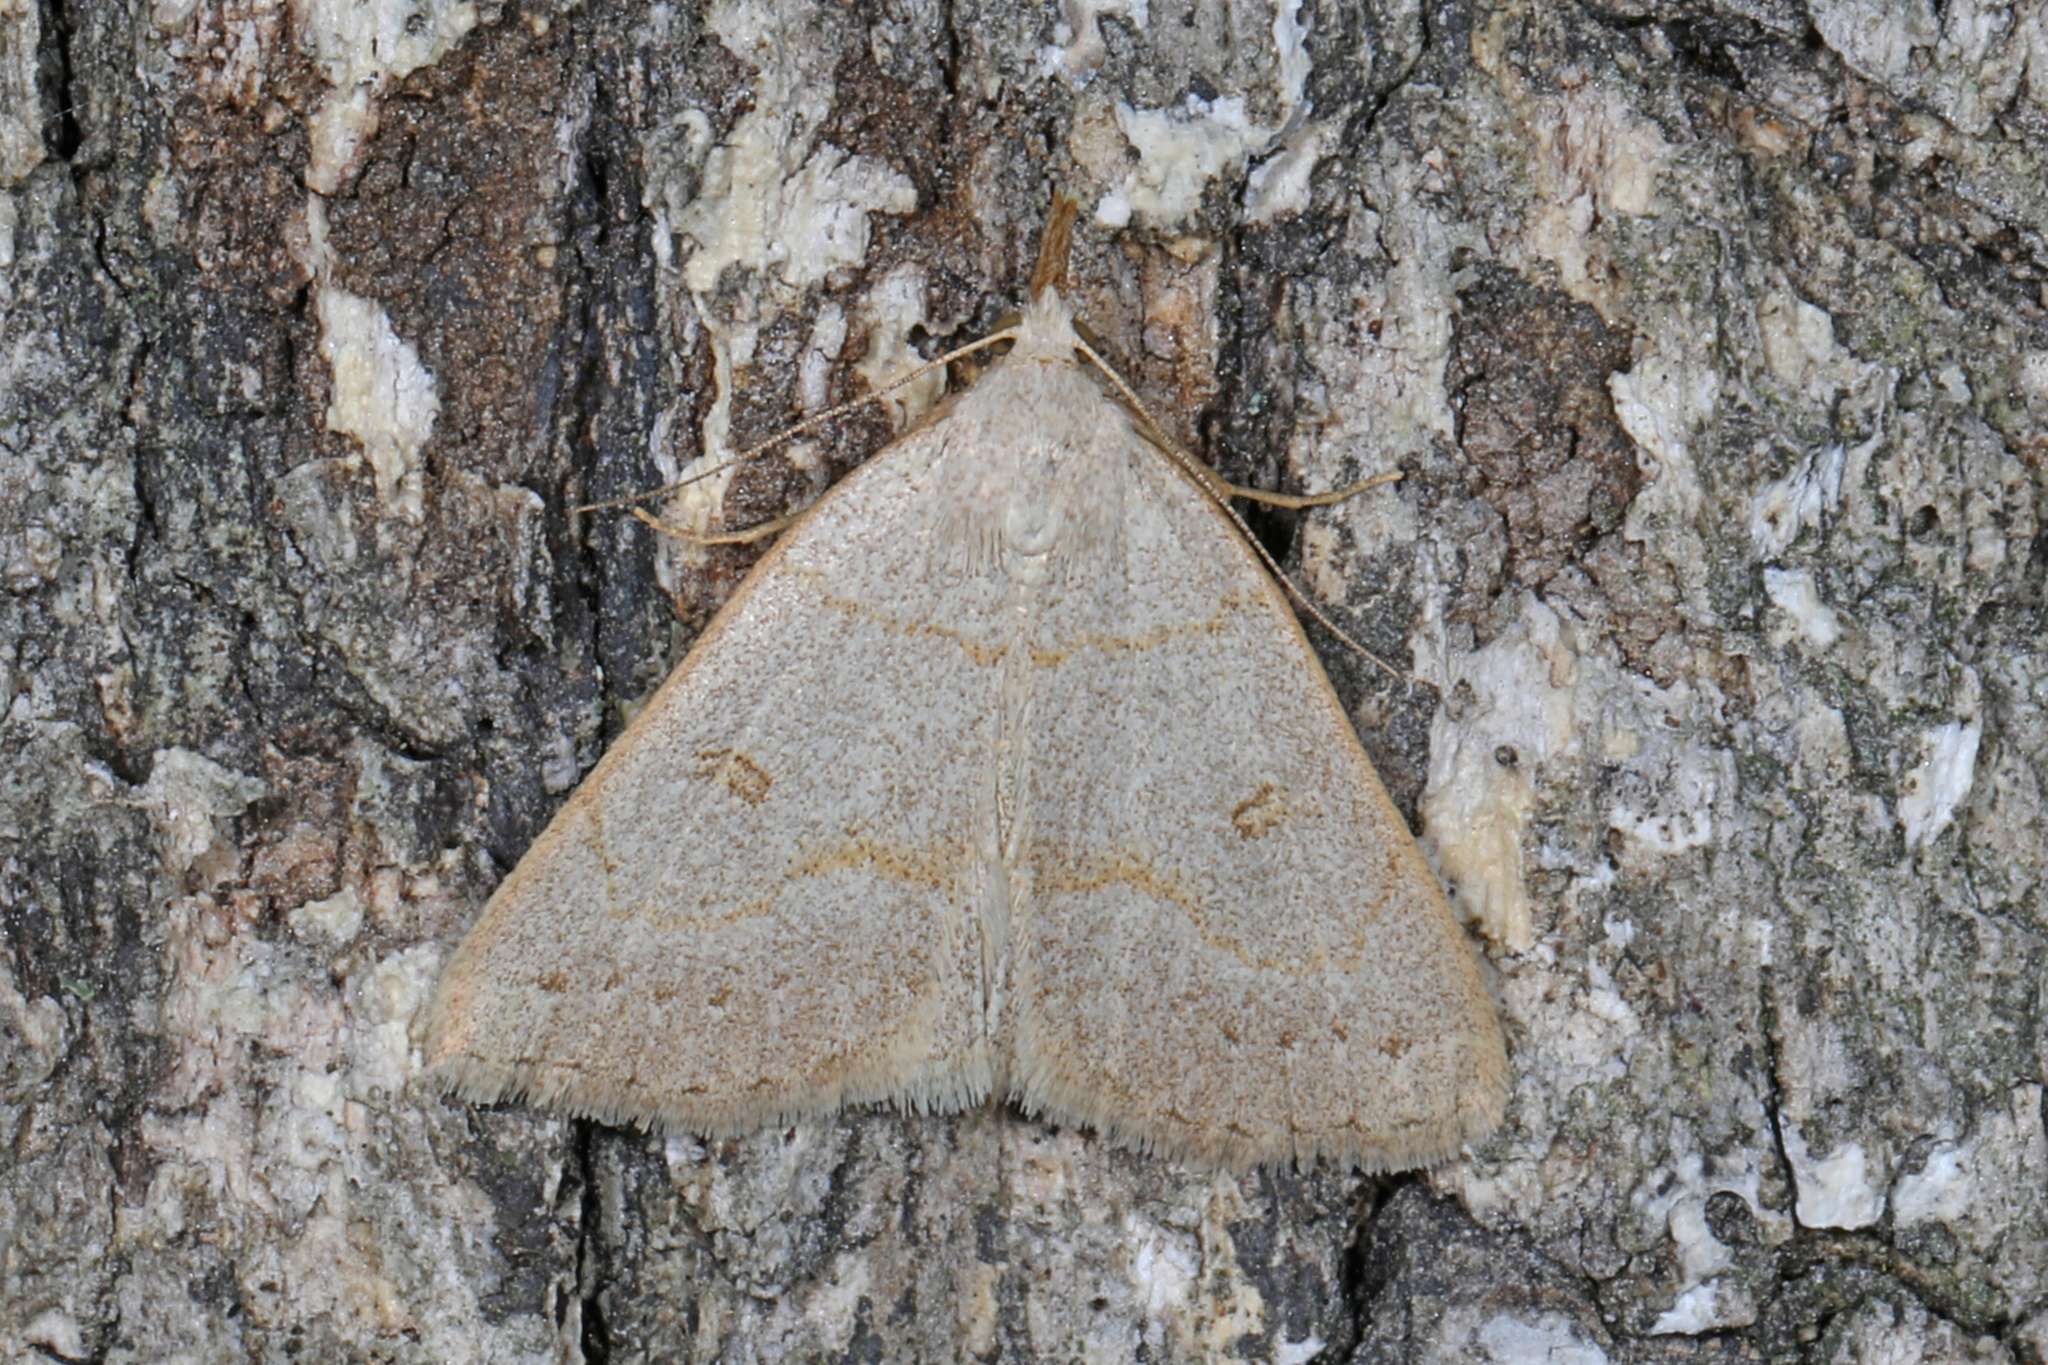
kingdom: Animalia
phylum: Arthropoda
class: Insecta
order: Lepidoptera
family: Erebidae
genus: Macrochilo
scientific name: Macrochilo morbidalis
